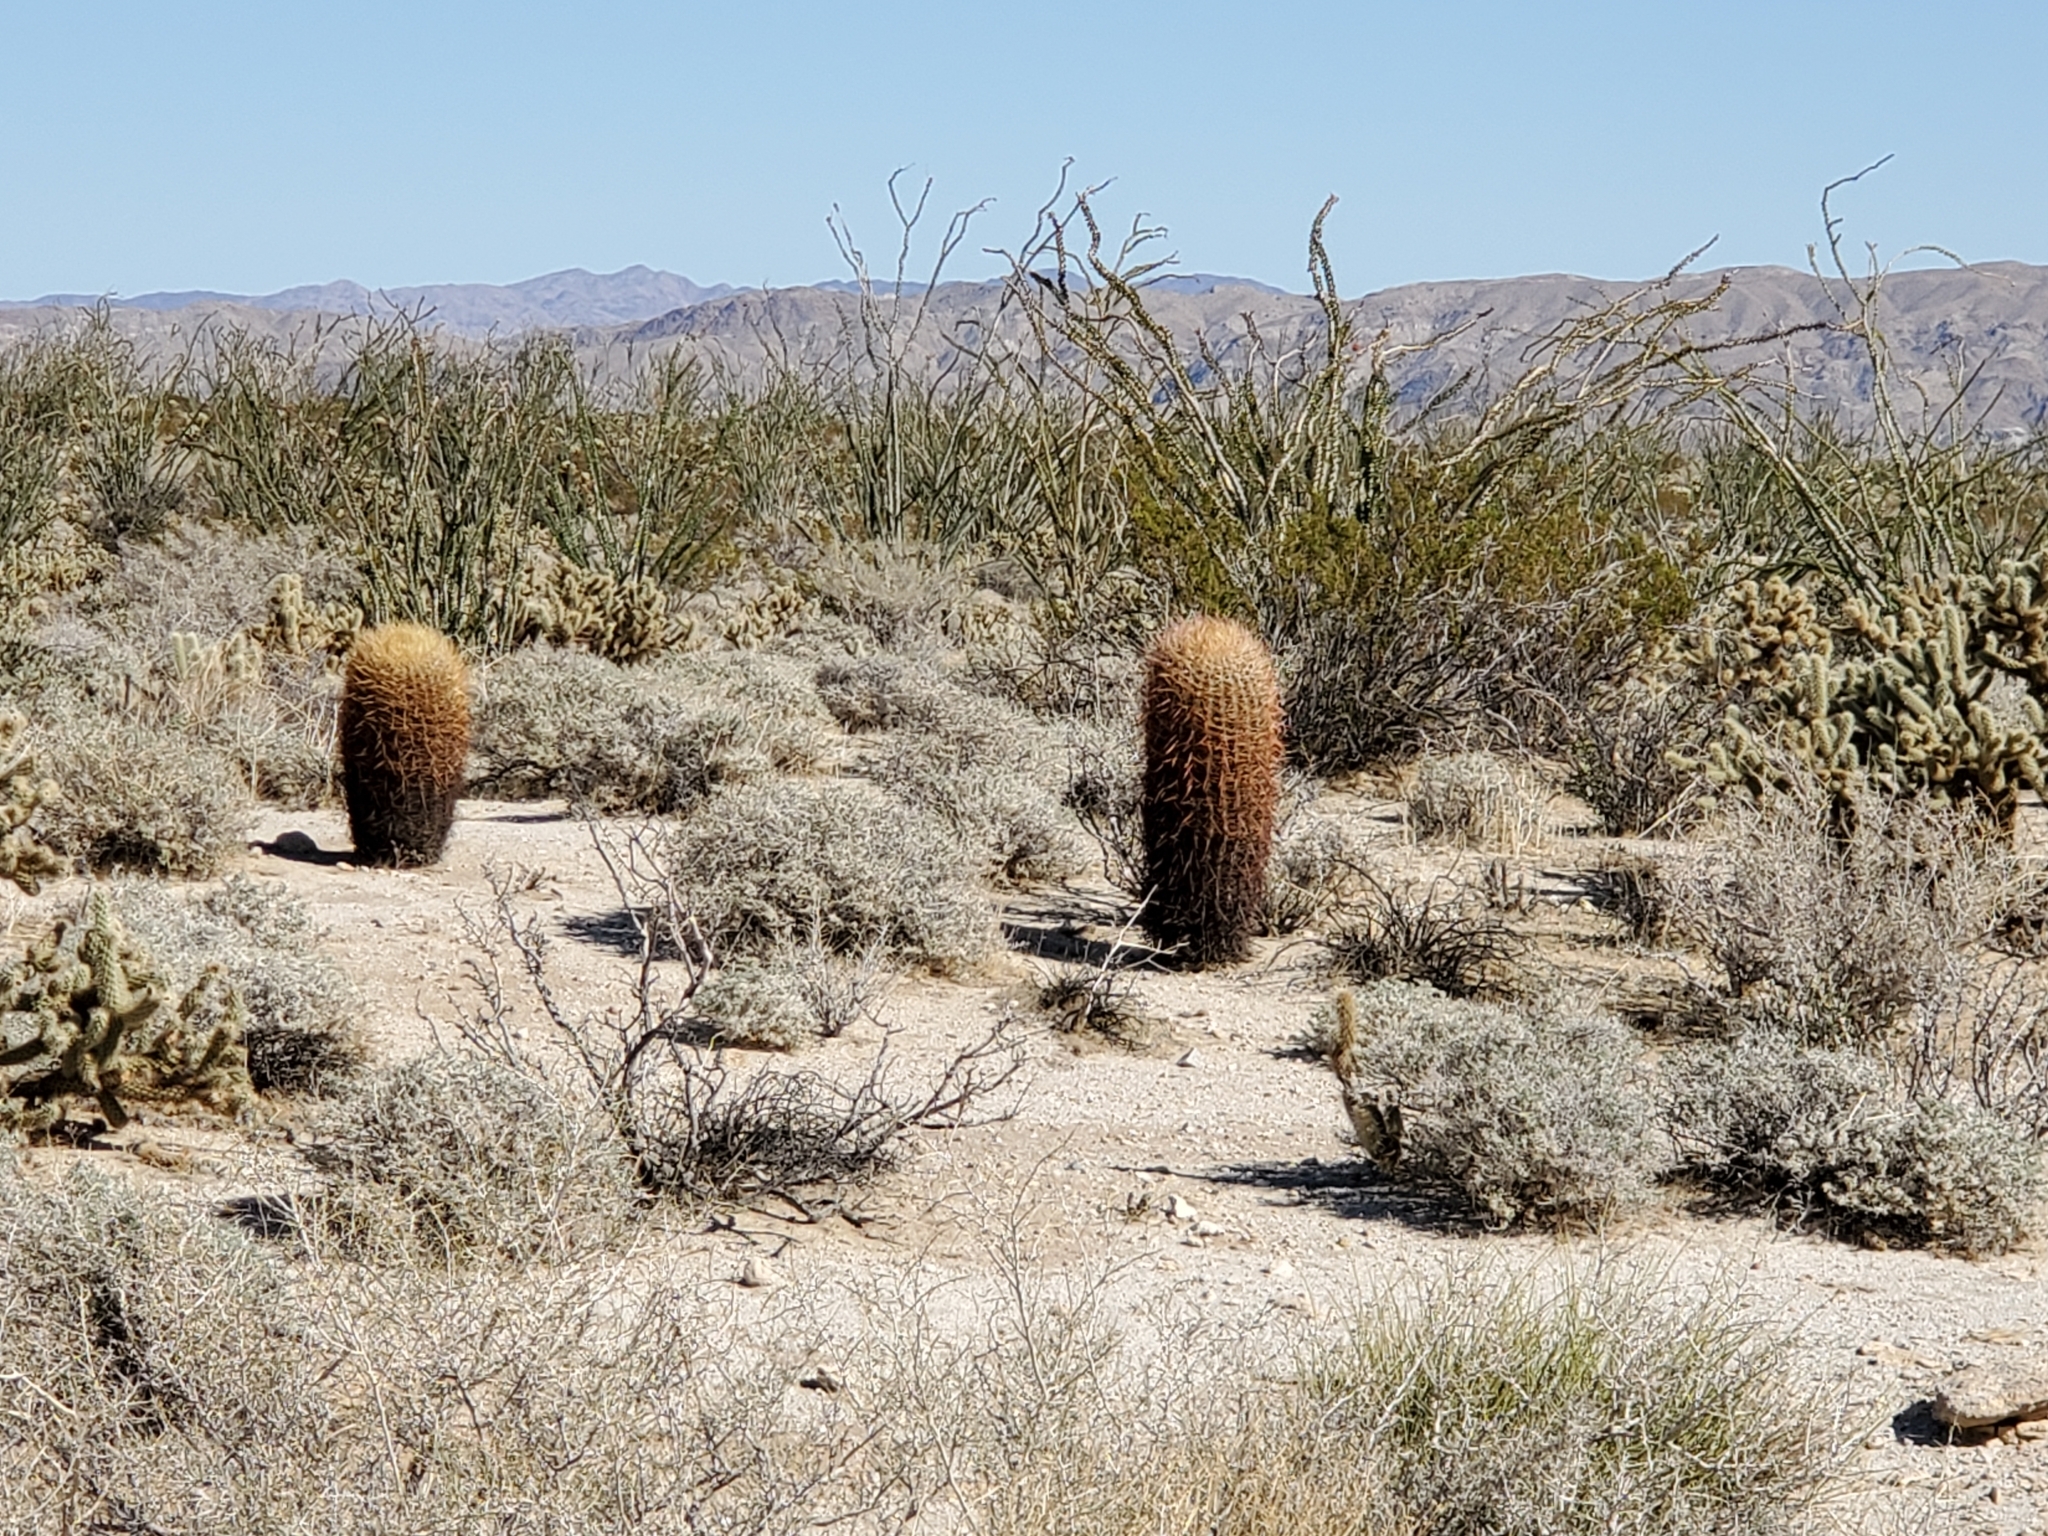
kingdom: Plantae
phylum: Tracheophyta
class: Magnoliopsida
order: Caryophyllales
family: Cactaceae
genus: Ferocactus
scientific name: Ferocactus cylindraceus
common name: California barrel cactus
